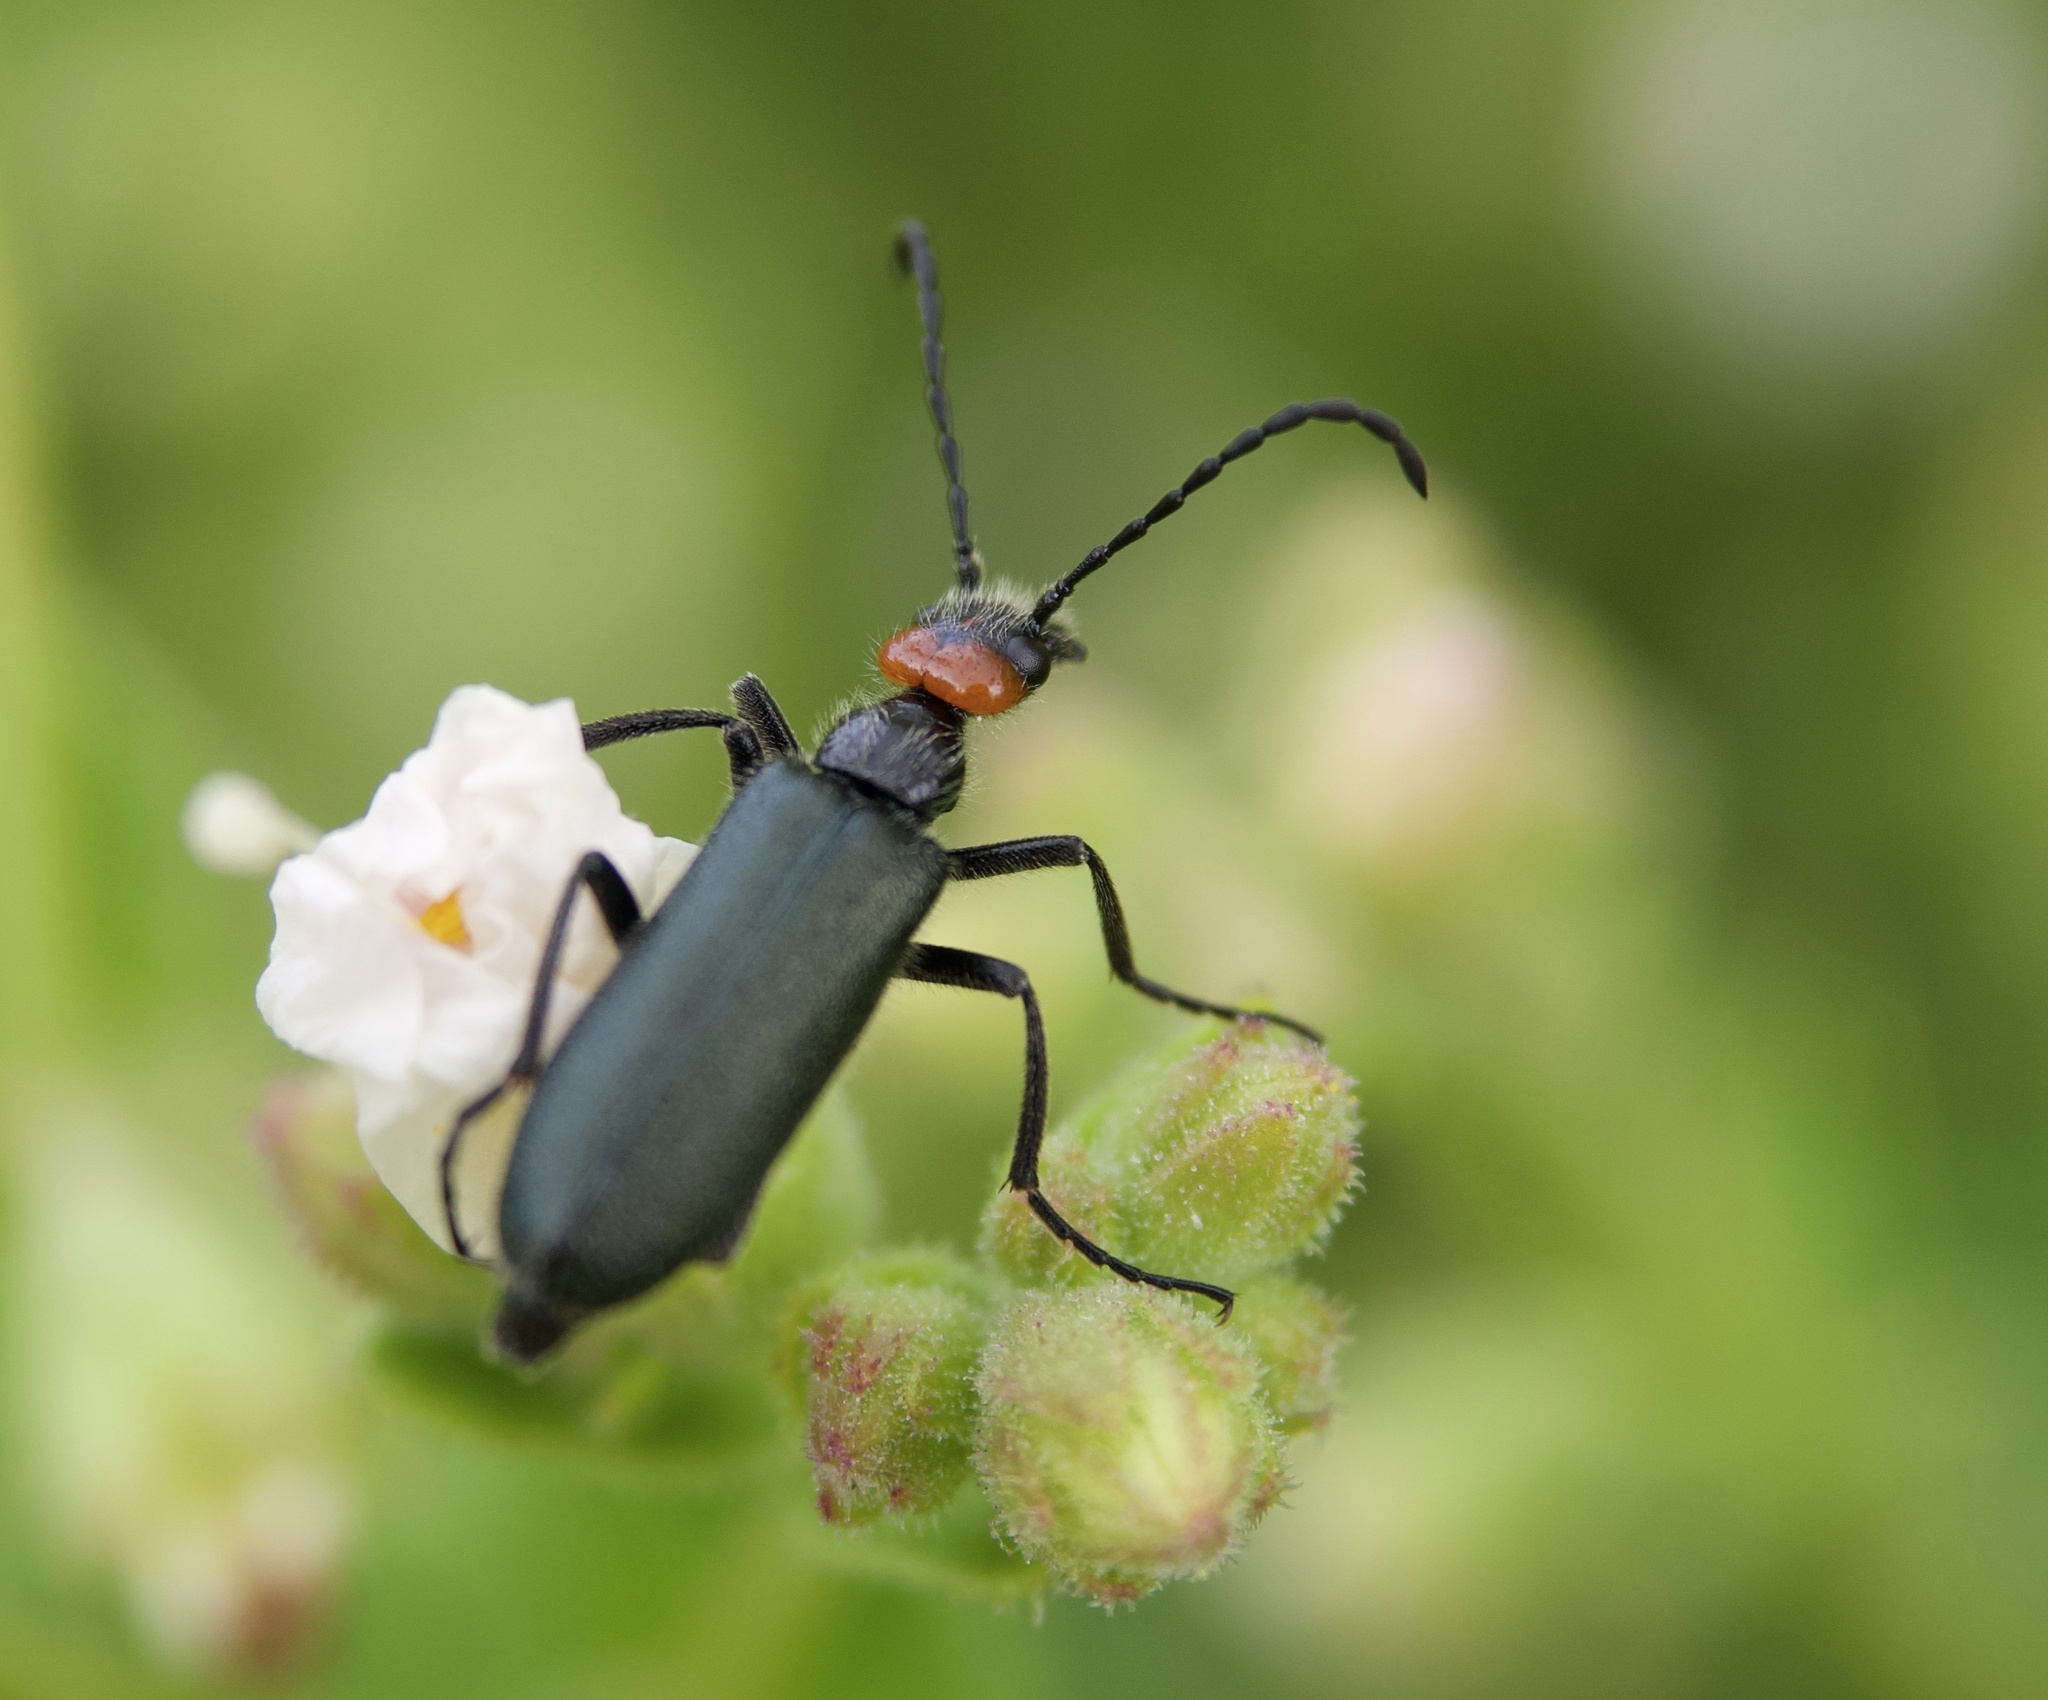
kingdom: Animalia
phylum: Arthropoda
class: Insecta
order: Coleoptera
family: Meloidae
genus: Lytta
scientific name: Lytta auriculata
